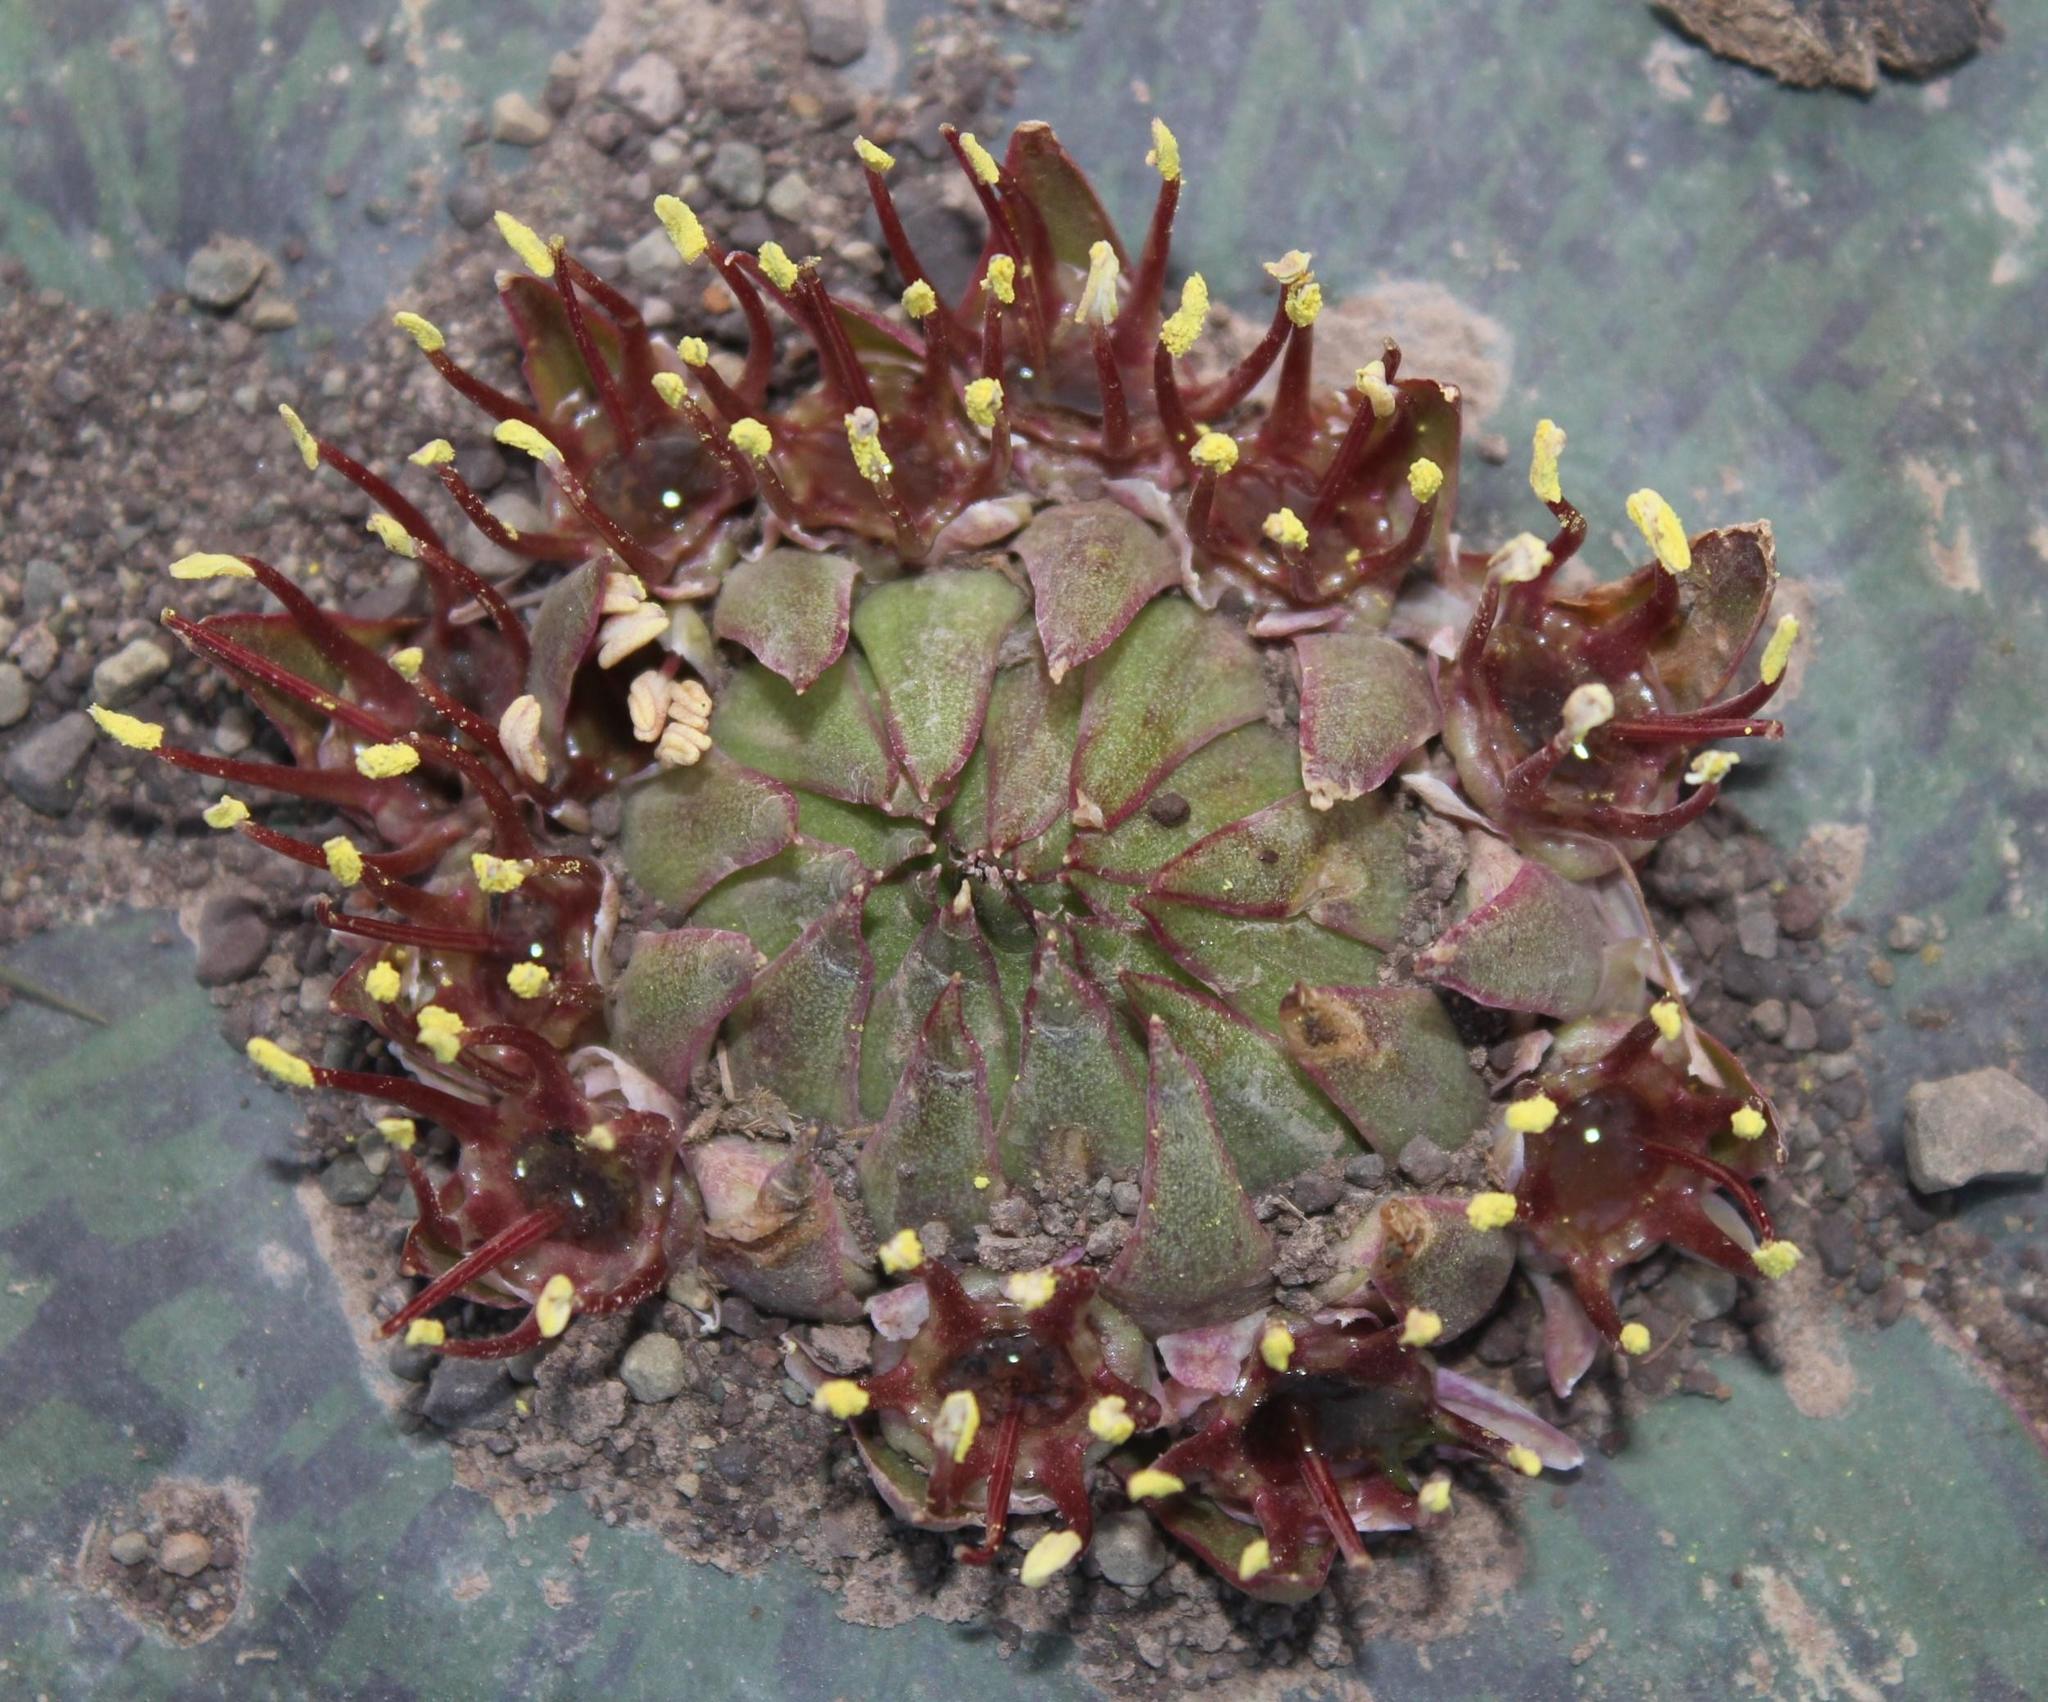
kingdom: Plantae
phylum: Tracheophyta
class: Liliopsida
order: Asparagales
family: Asparagaceae
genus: Massonia
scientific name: Massonia depressa
